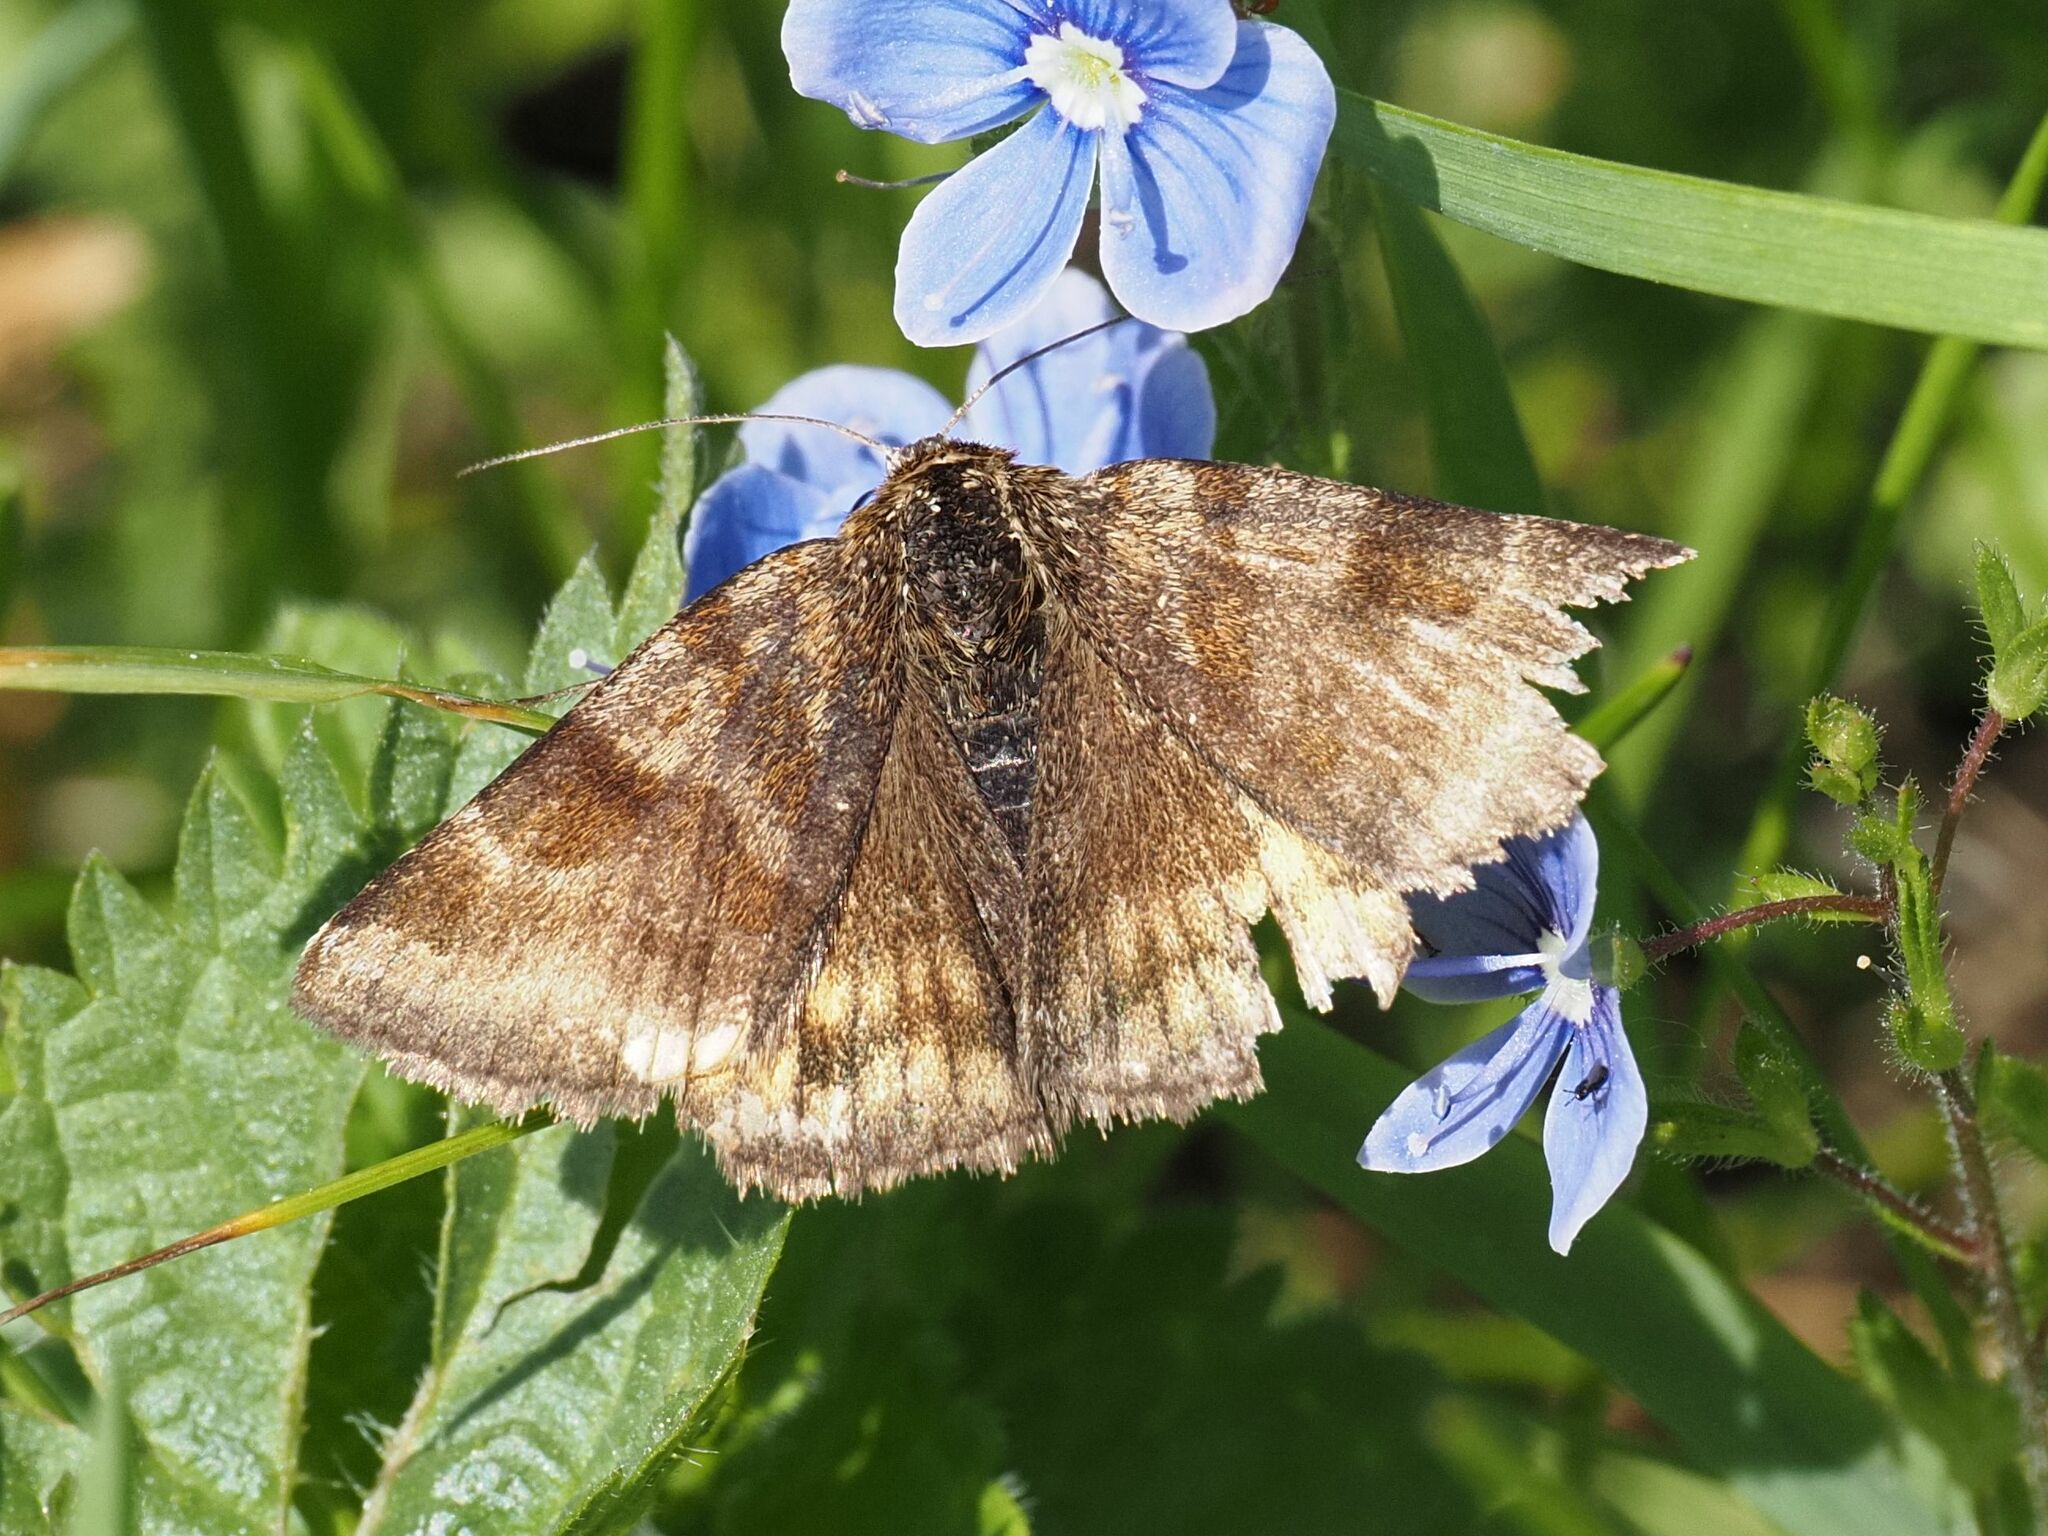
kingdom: Animalia
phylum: Arthropoda
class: Insecta
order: Lepidoptera
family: Erebidae
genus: Euclidia
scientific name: Euclidia glyphica
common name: Burnet companion
